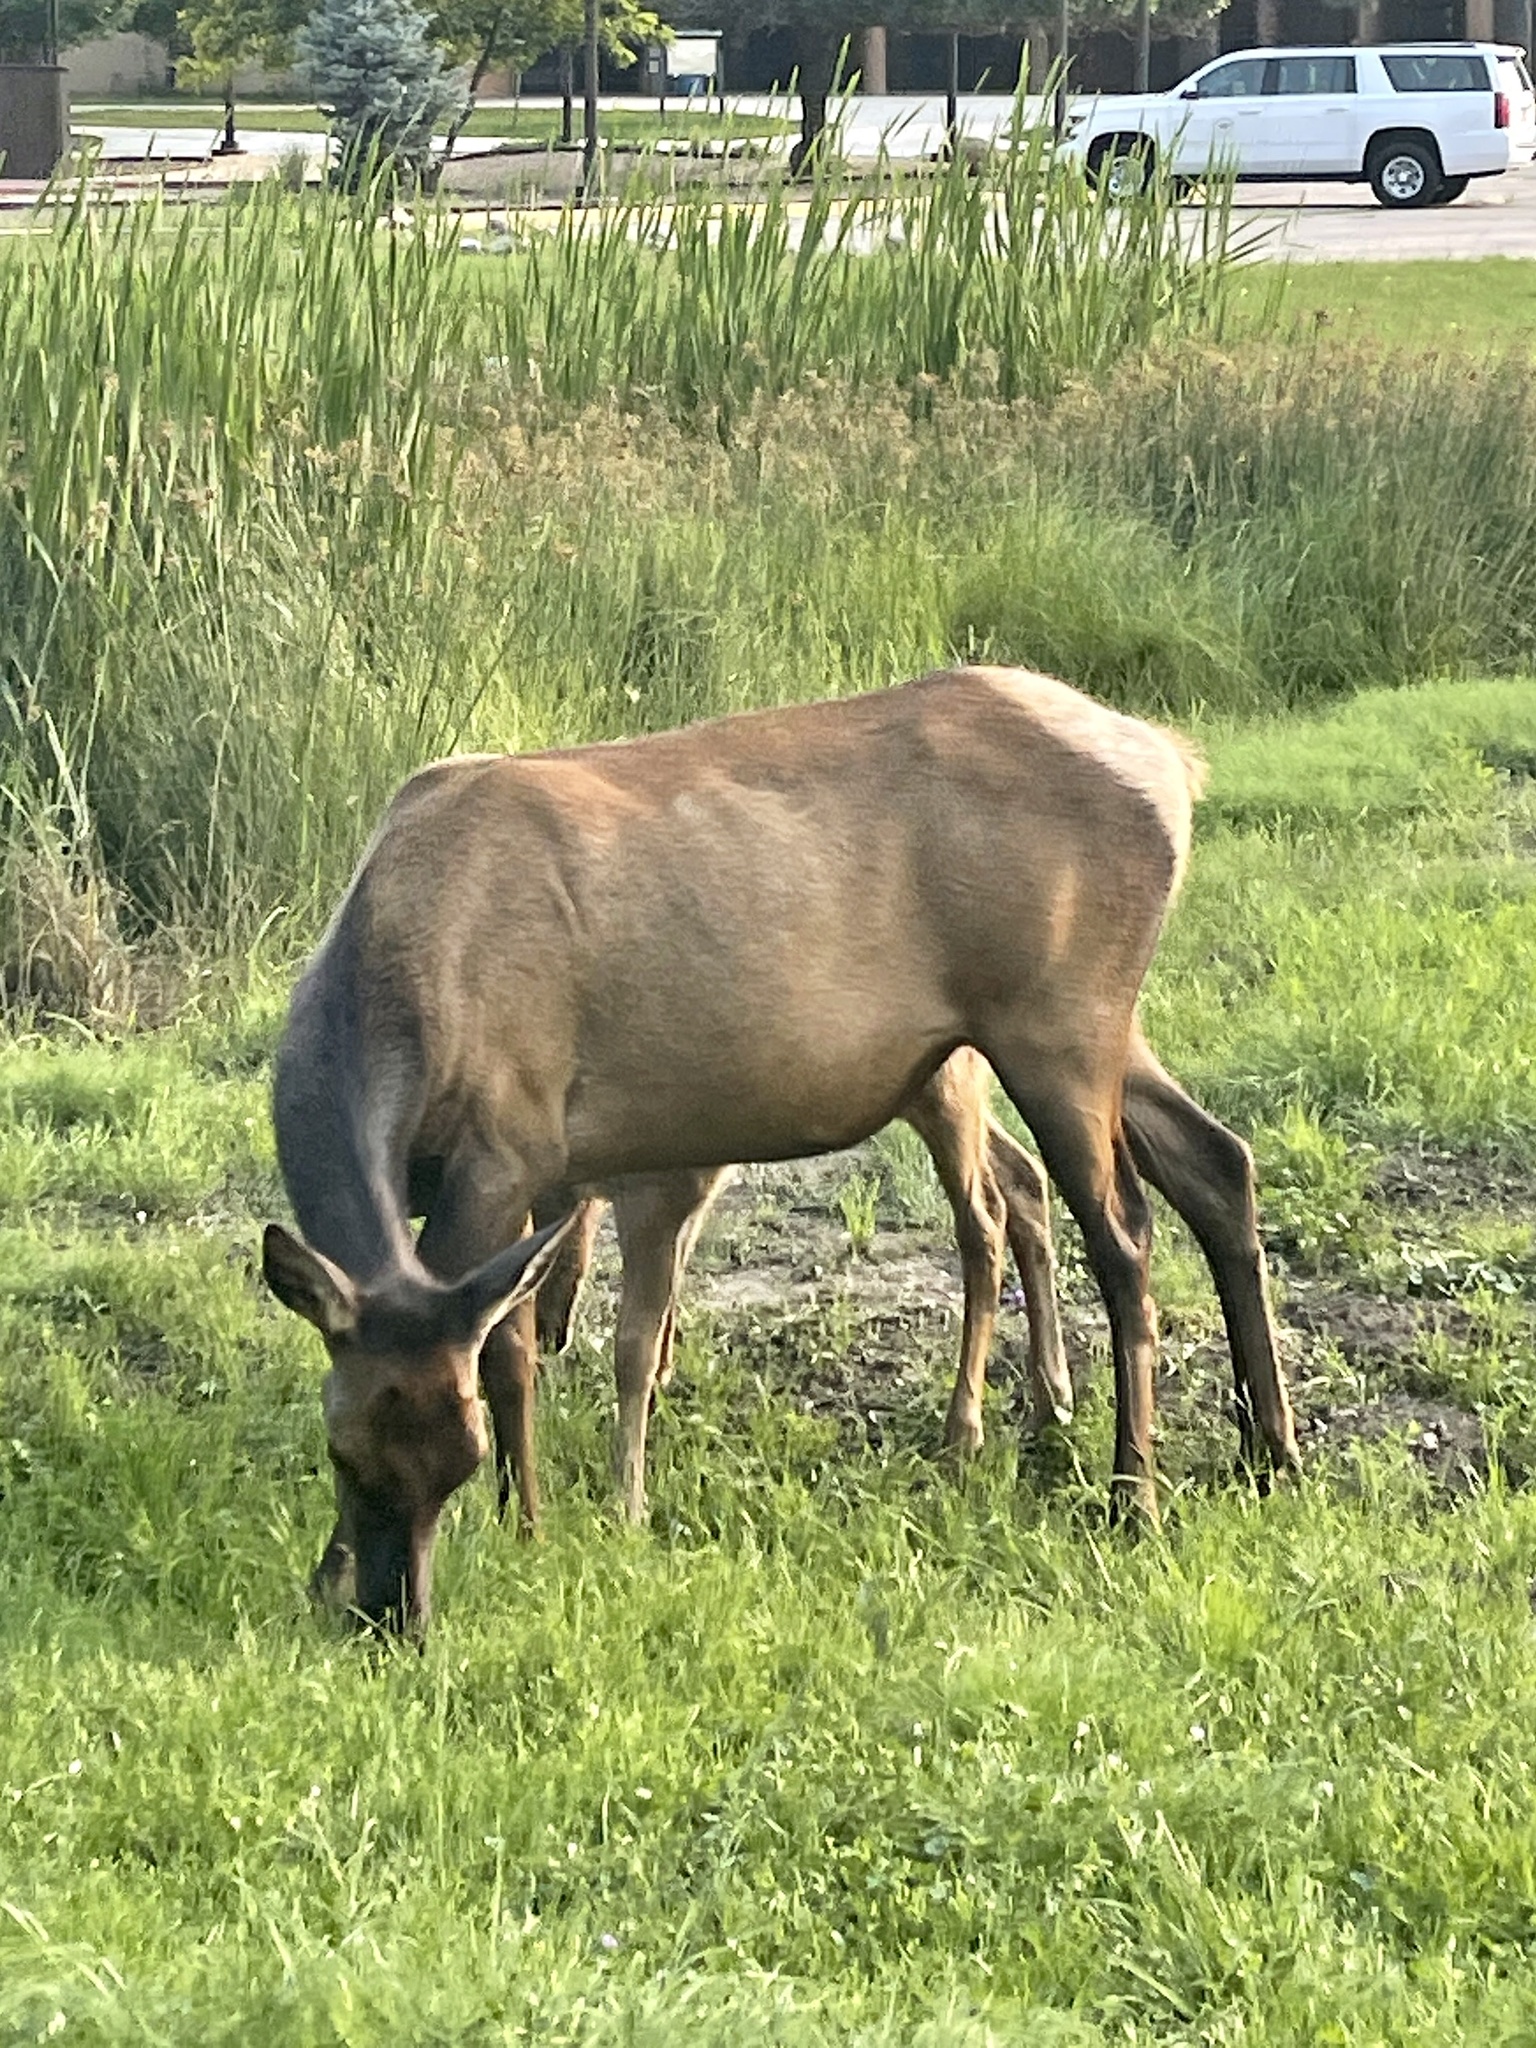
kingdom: Animalia
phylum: Chordata
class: Mammalia
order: Artiodactyla
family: Cervidae
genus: Cervus
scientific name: Cervus elaphus
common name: Red deer
